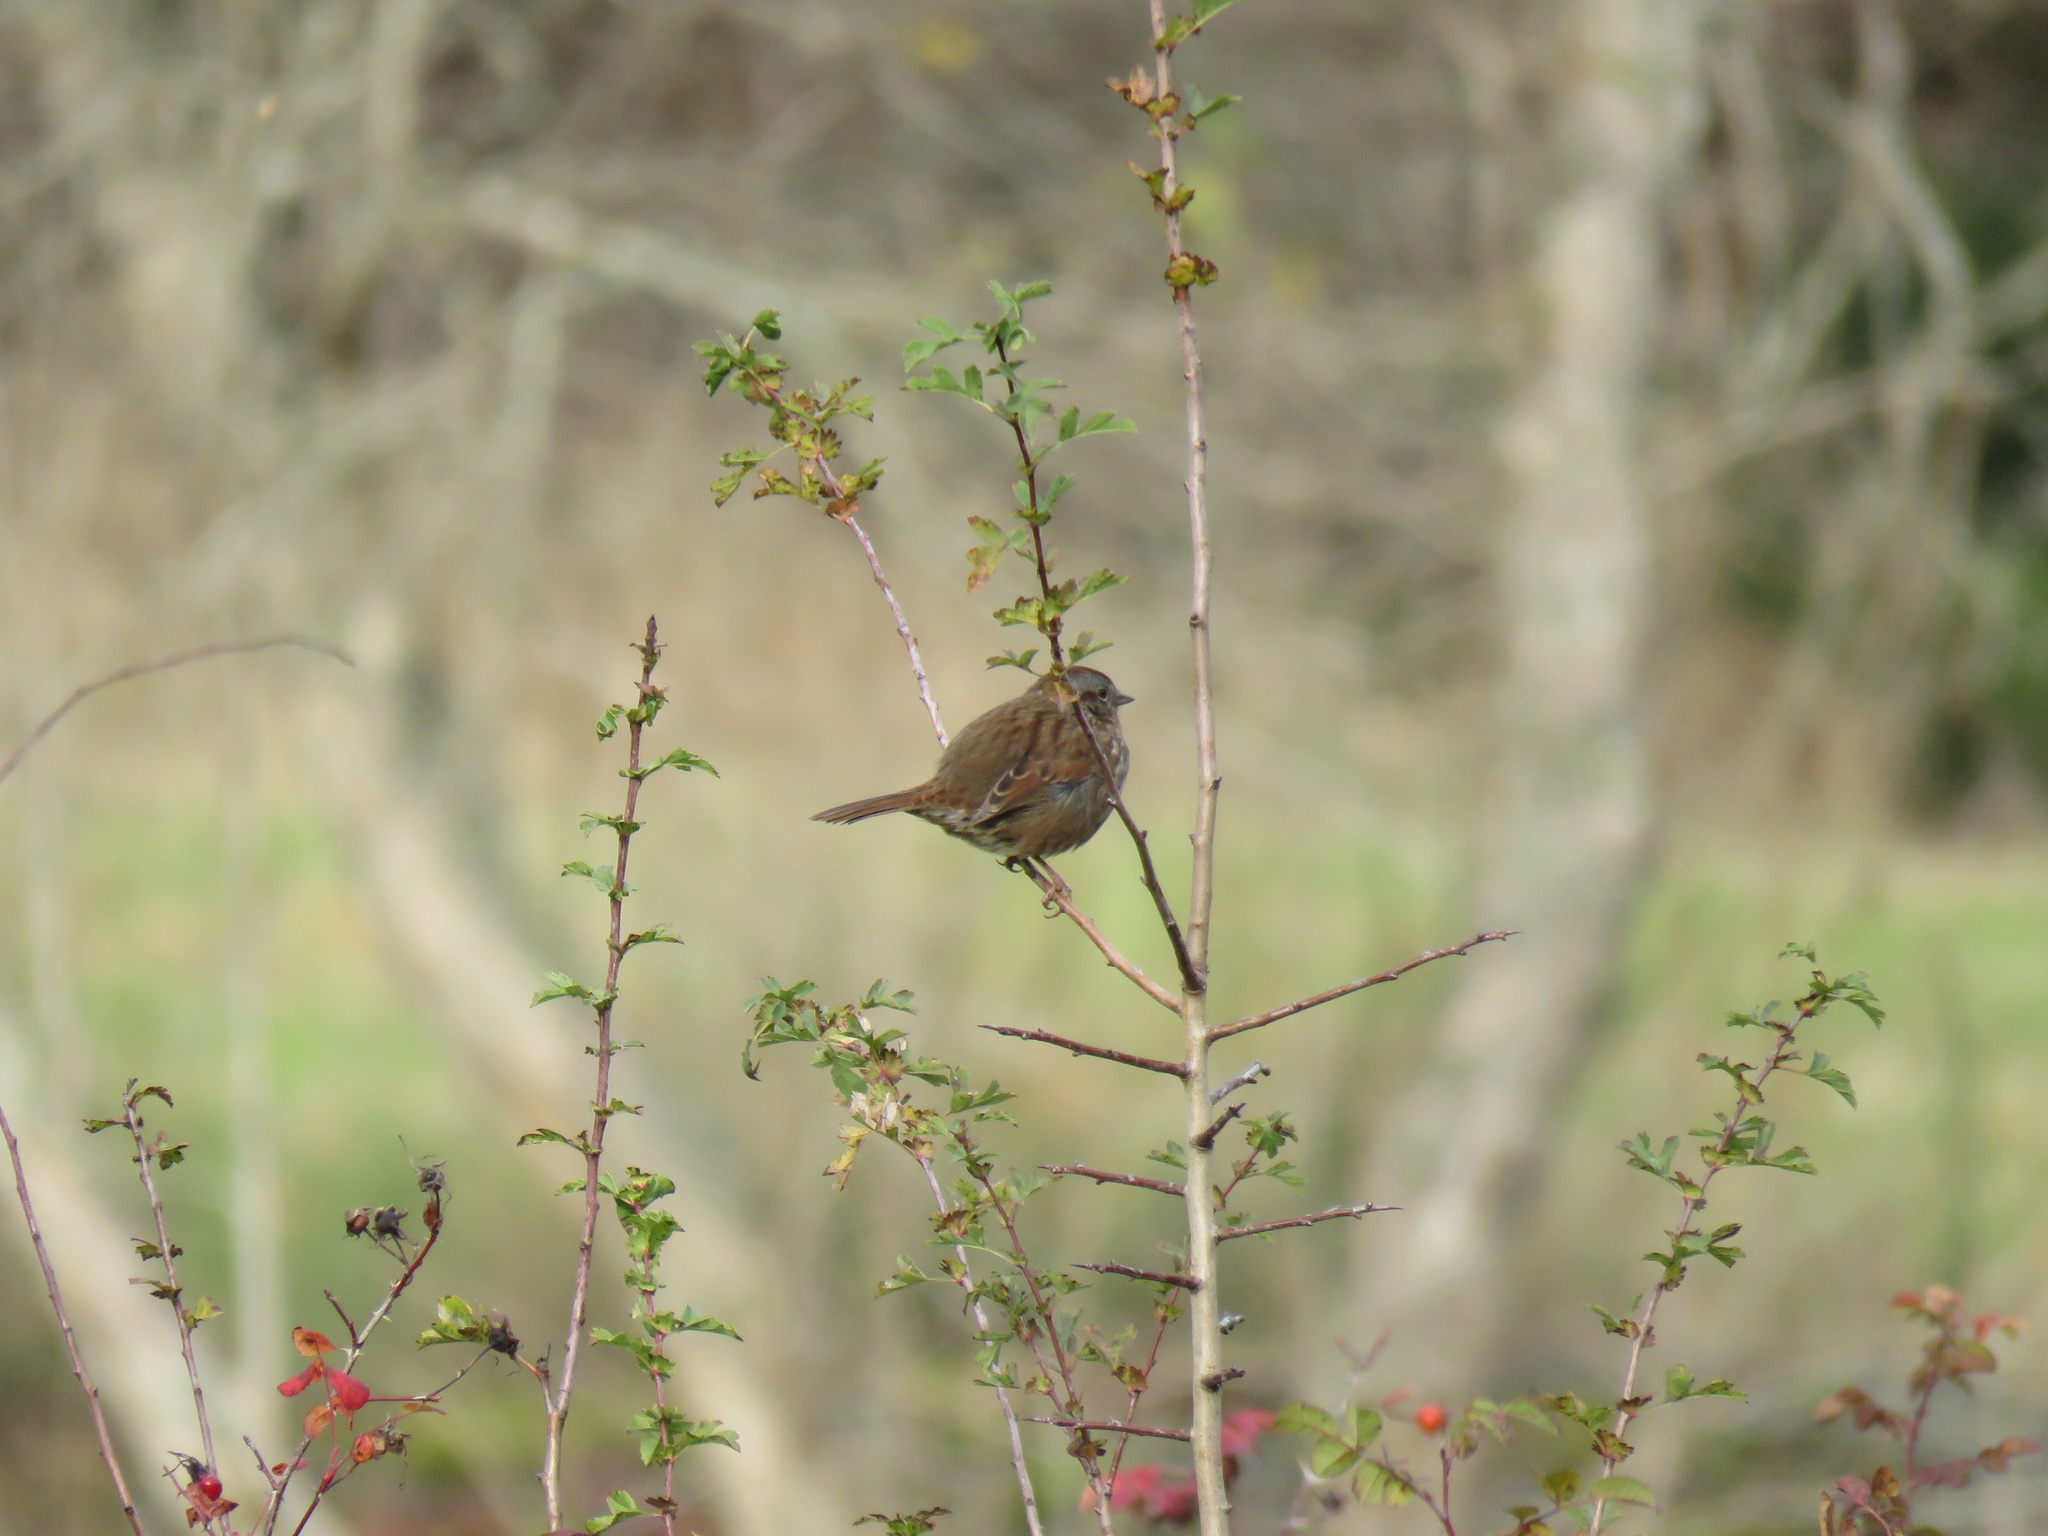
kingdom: Animalia
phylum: Chordata
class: Aves
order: Passeriformes
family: Passerellidae
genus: Melospiza
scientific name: Melospiza melodia
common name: Song sparrow
